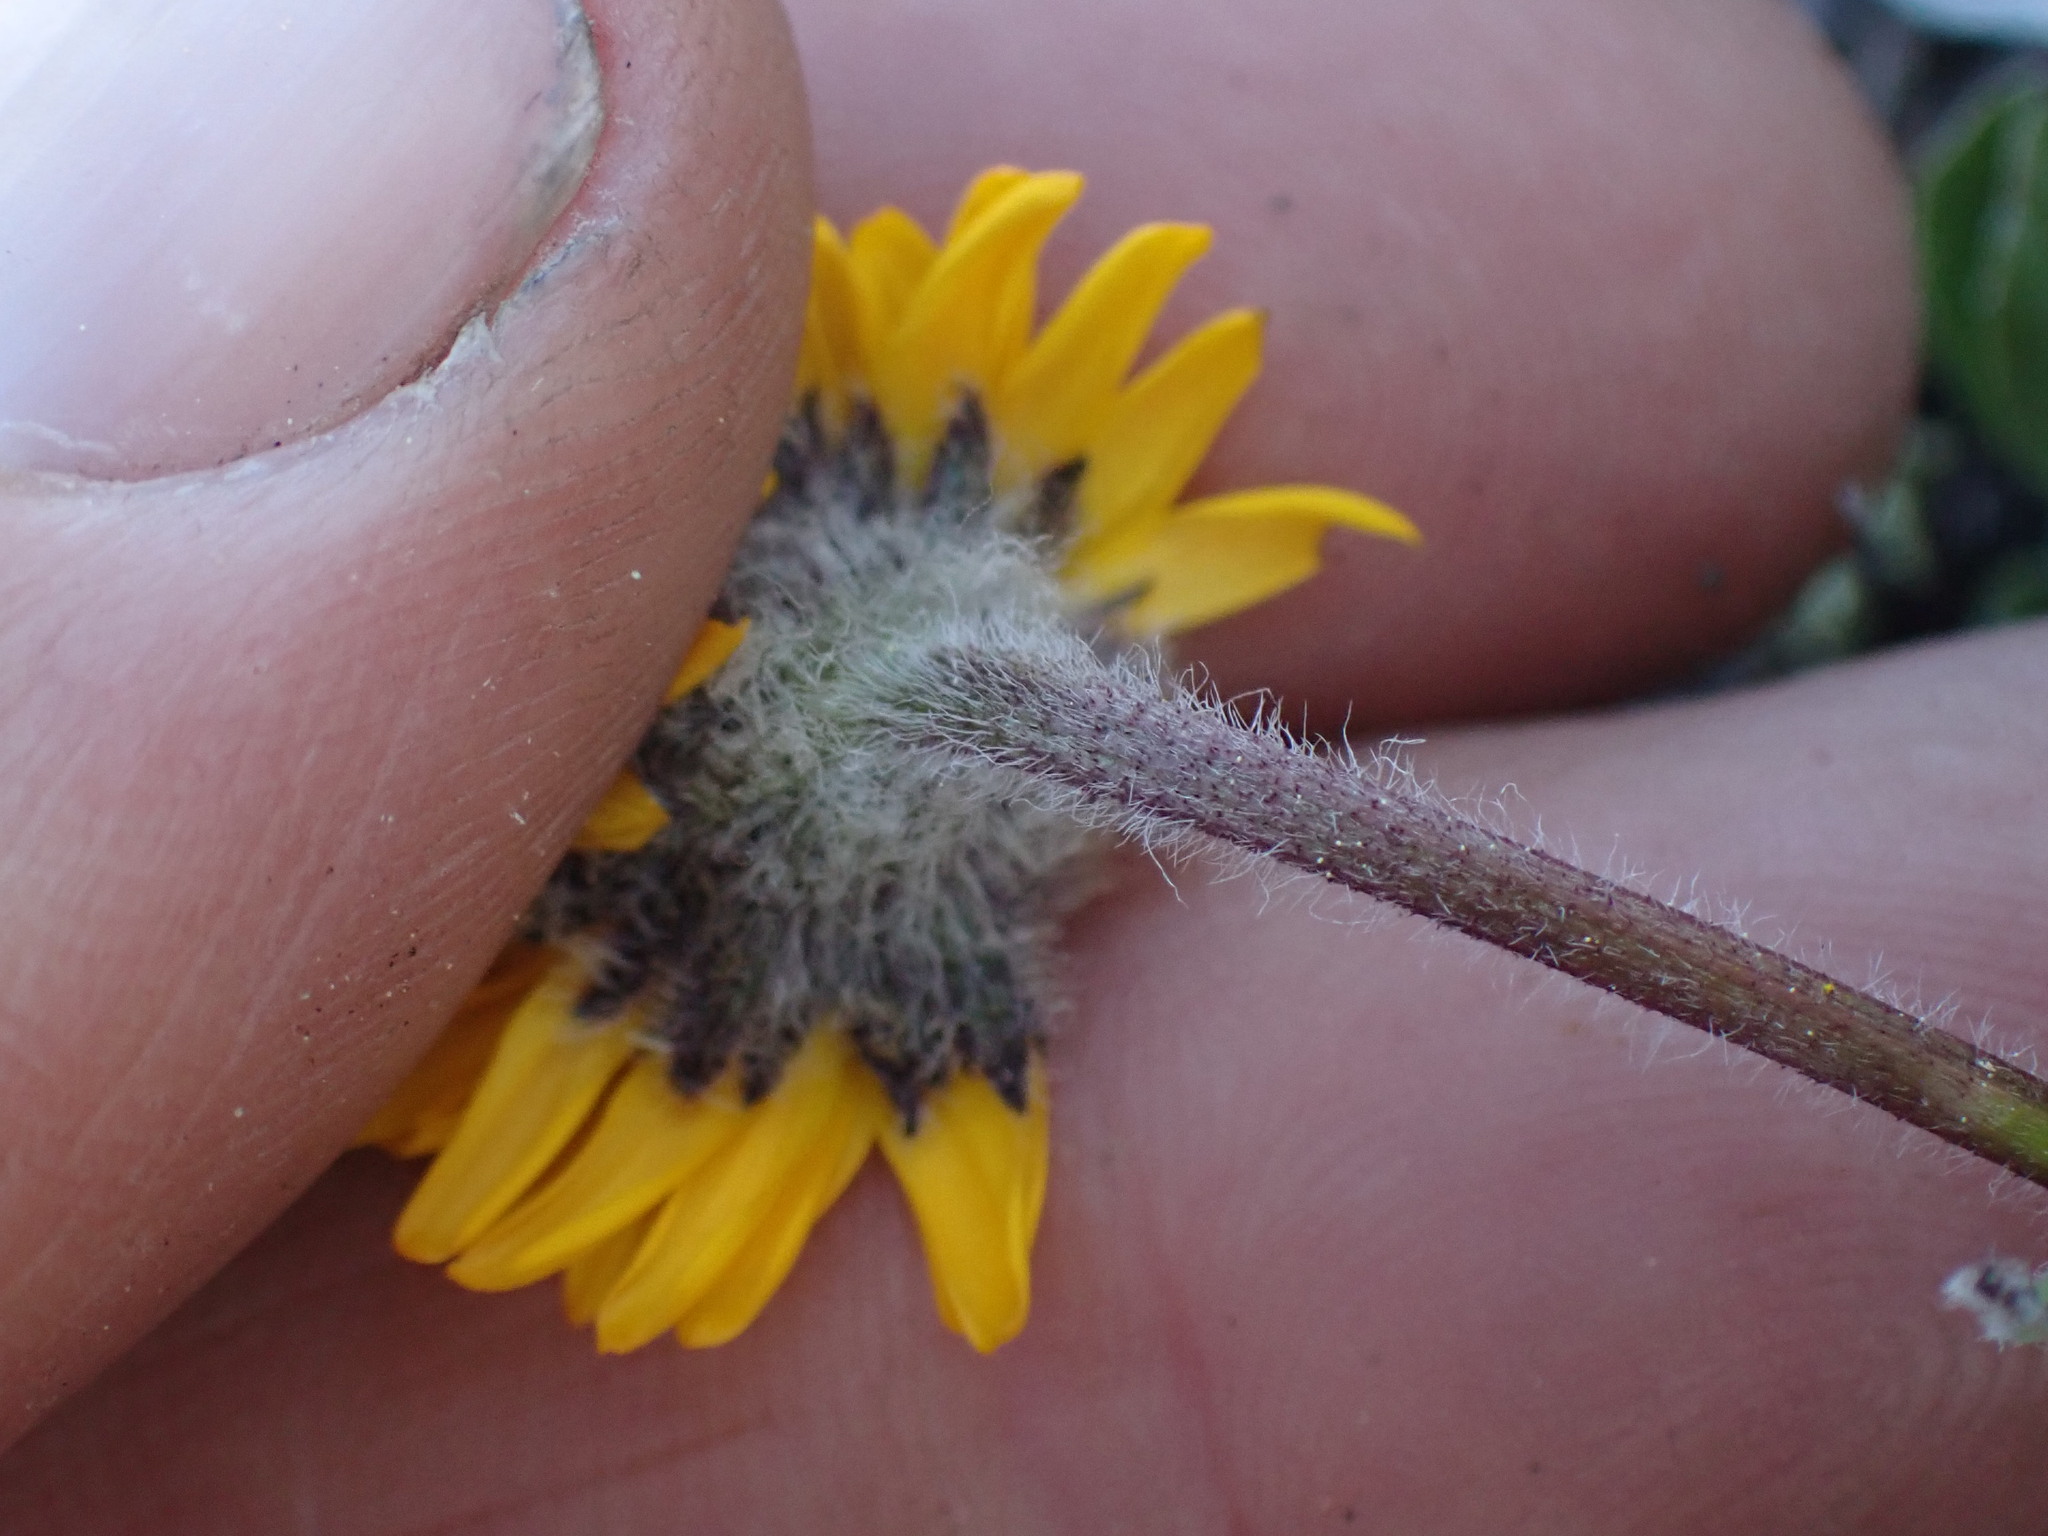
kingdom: Plantae
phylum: Tracheophyta
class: Magnoliopsida
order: Asterales
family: Asteraceae
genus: Erigeron
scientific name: Erigeron aureus
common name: Alpine yellow fleabane
